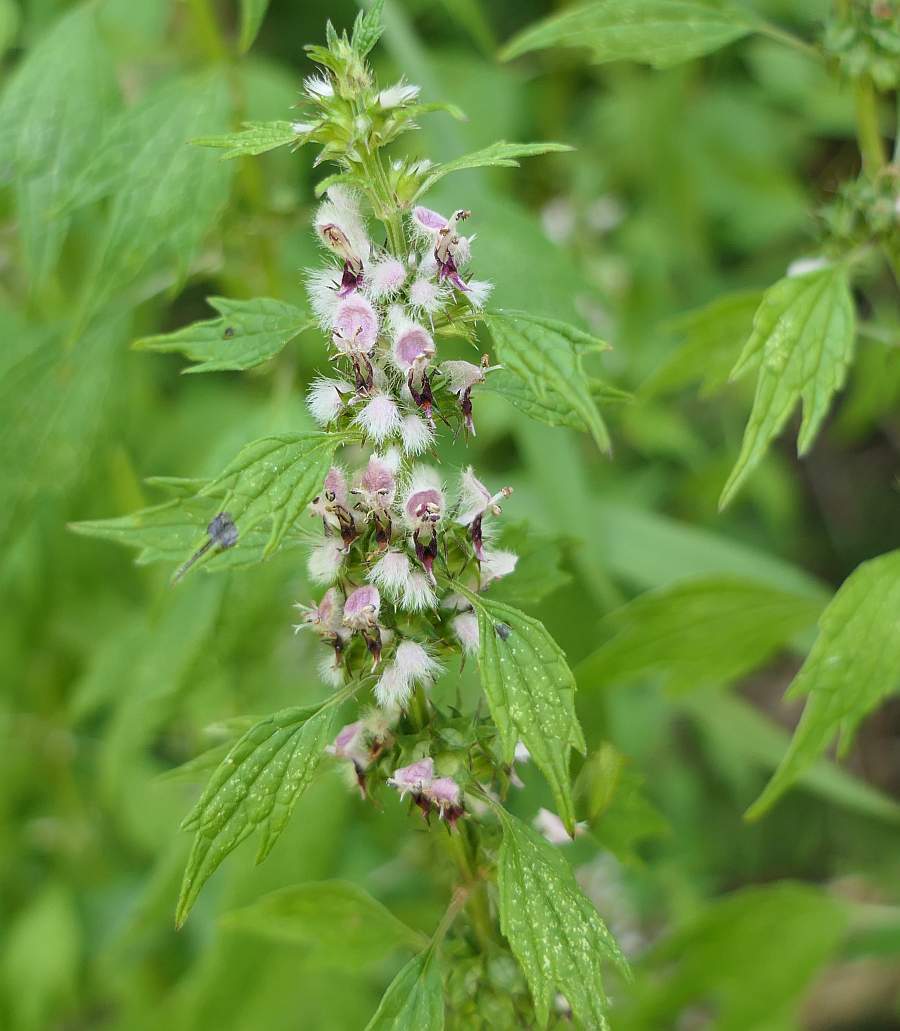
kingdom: Plantae
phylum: Tracheophyta
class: Magnoliopsida
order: Lamiales
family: Lamiaceae
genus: Leonurus
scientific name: Leonurus cardiaca
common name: Motherwort
